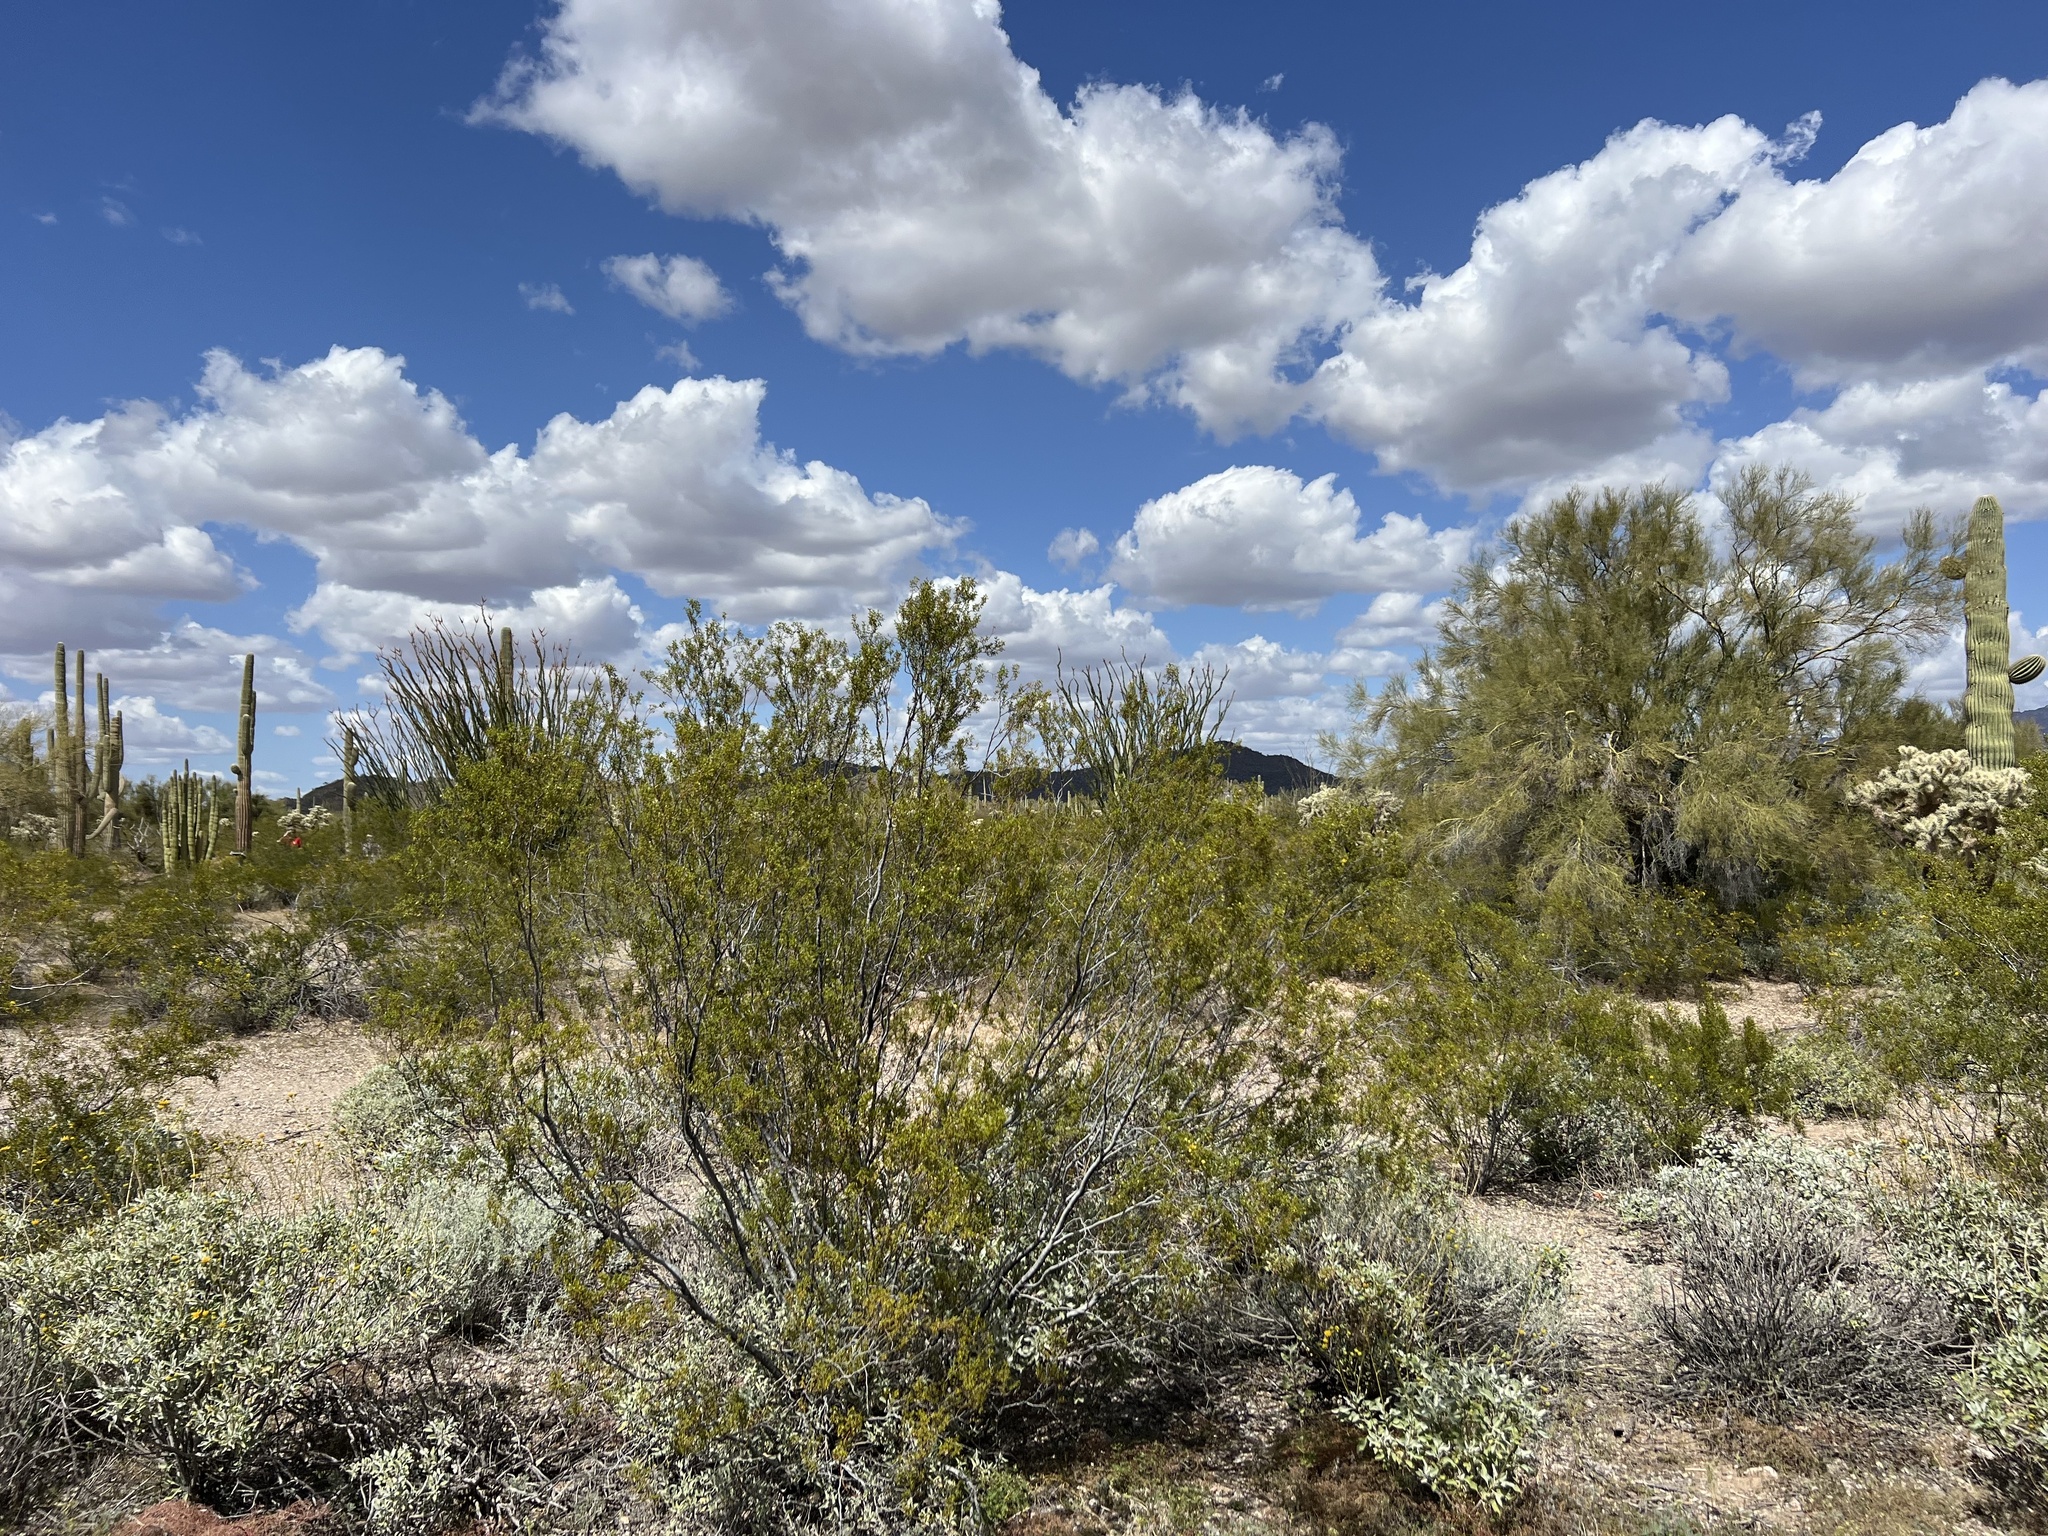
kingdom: Plantae
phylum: Tracheophyta
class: Magnoliopsida
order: Zygophyllales
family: Zygophyllaceae
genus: Larrea
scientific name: Larrea tridentata
